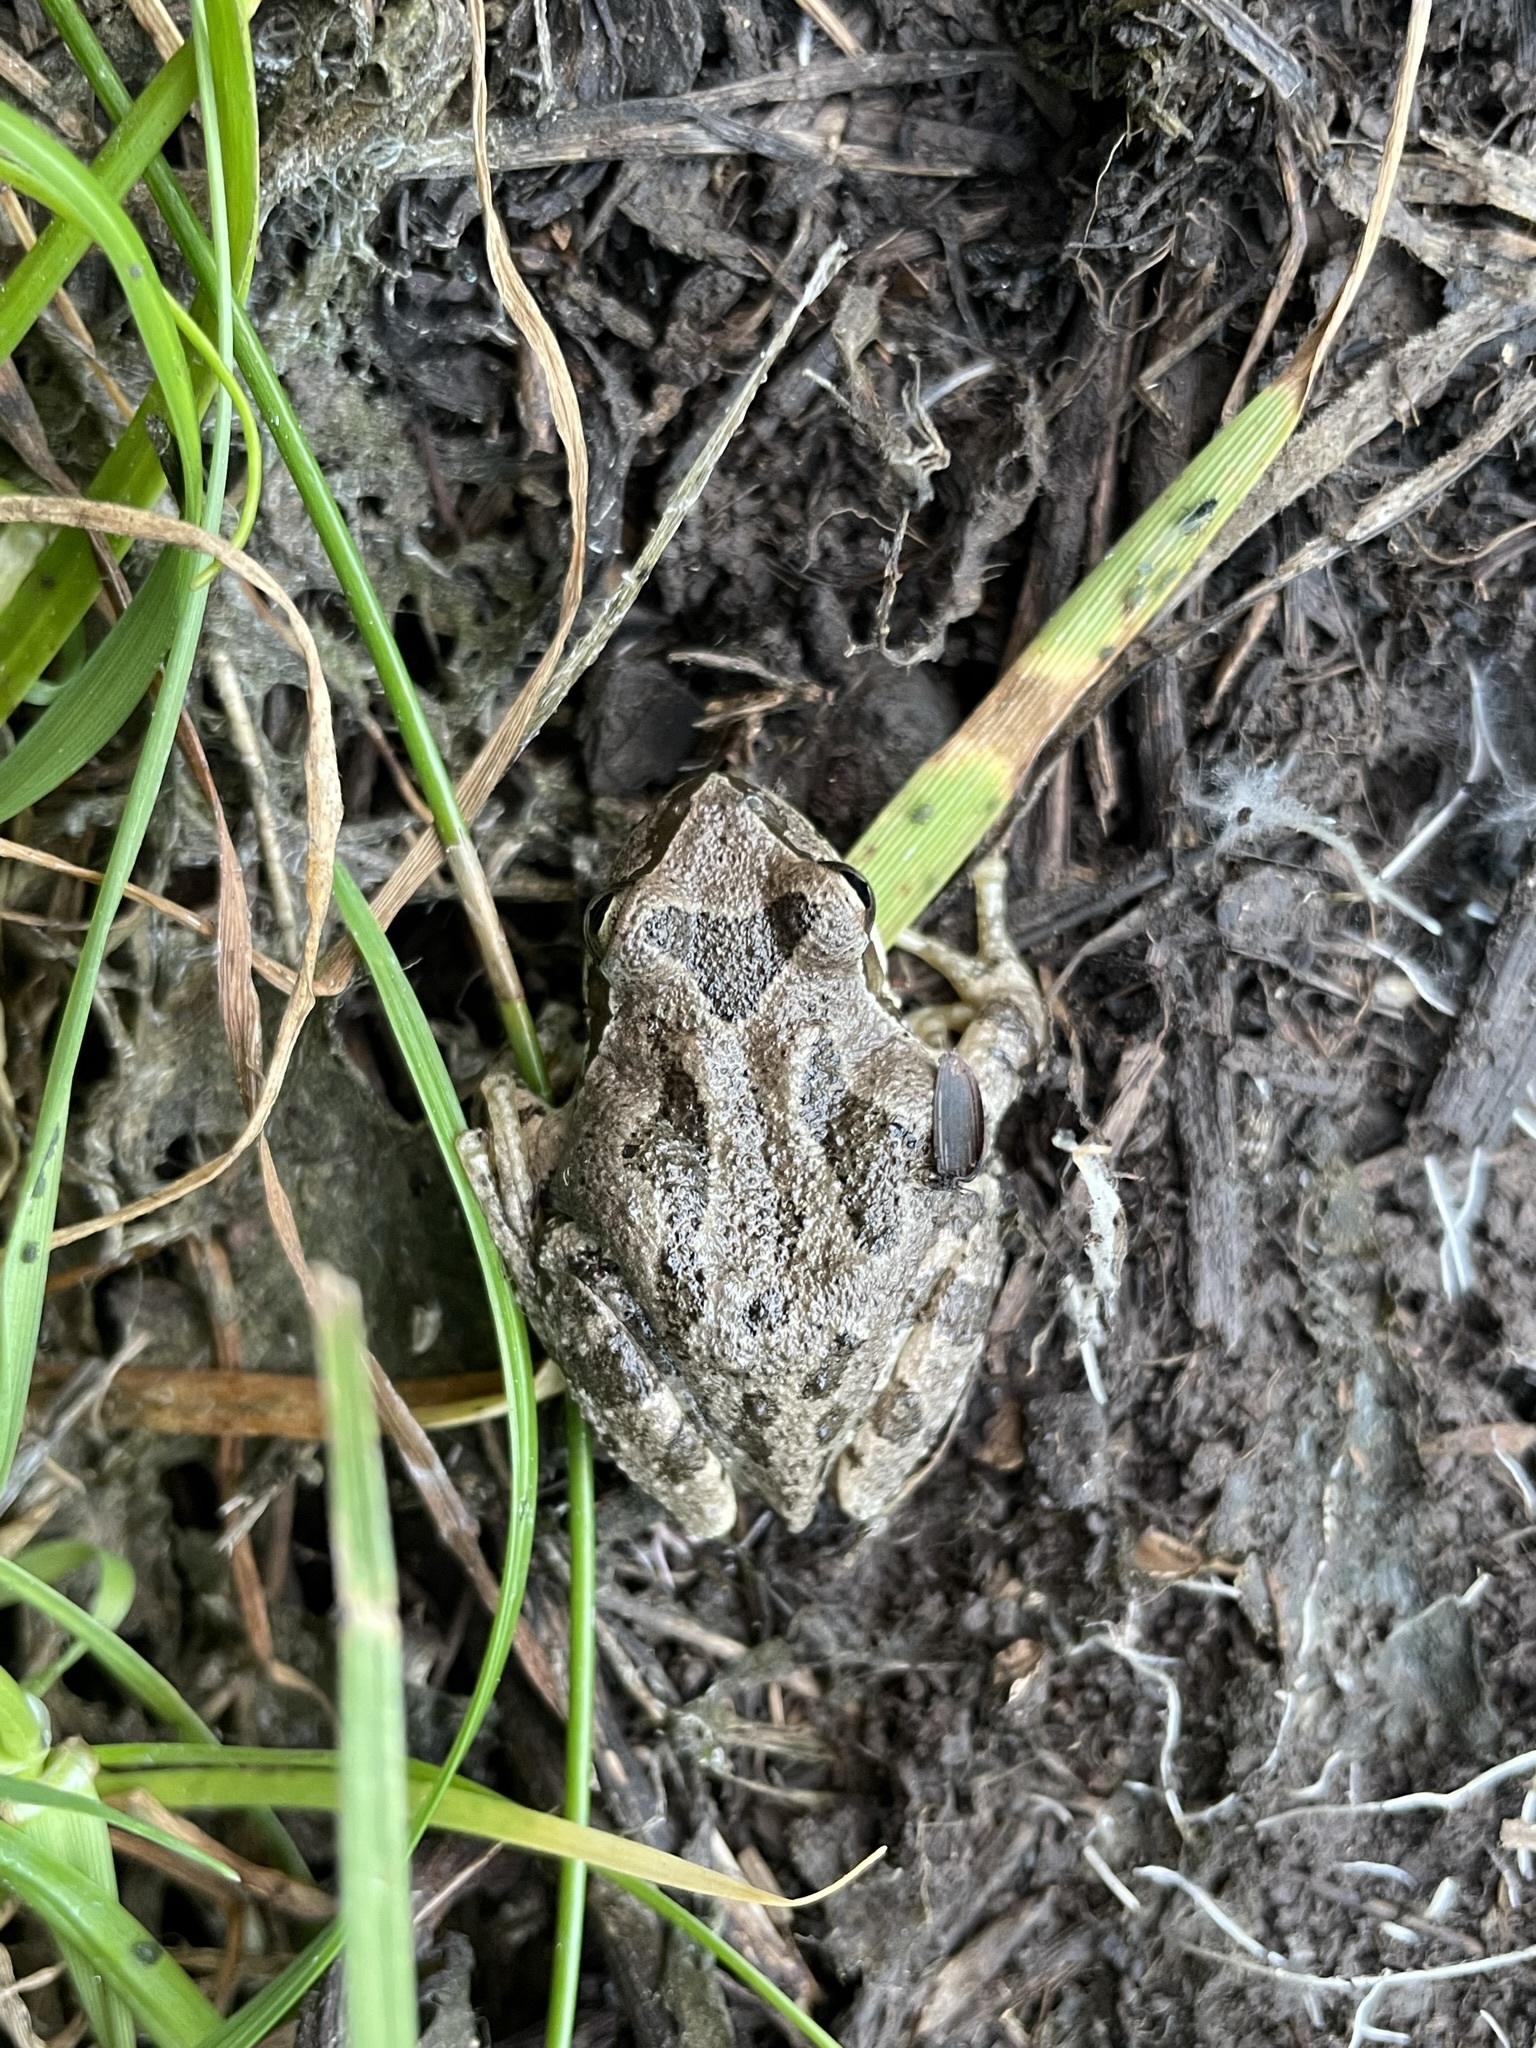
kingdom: Animalia
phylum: Chordata
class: Amphibia
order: Anura
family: Hylidae
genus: Pseudacris
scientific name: Pseudacris regilla
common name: Pacific chorus frog
